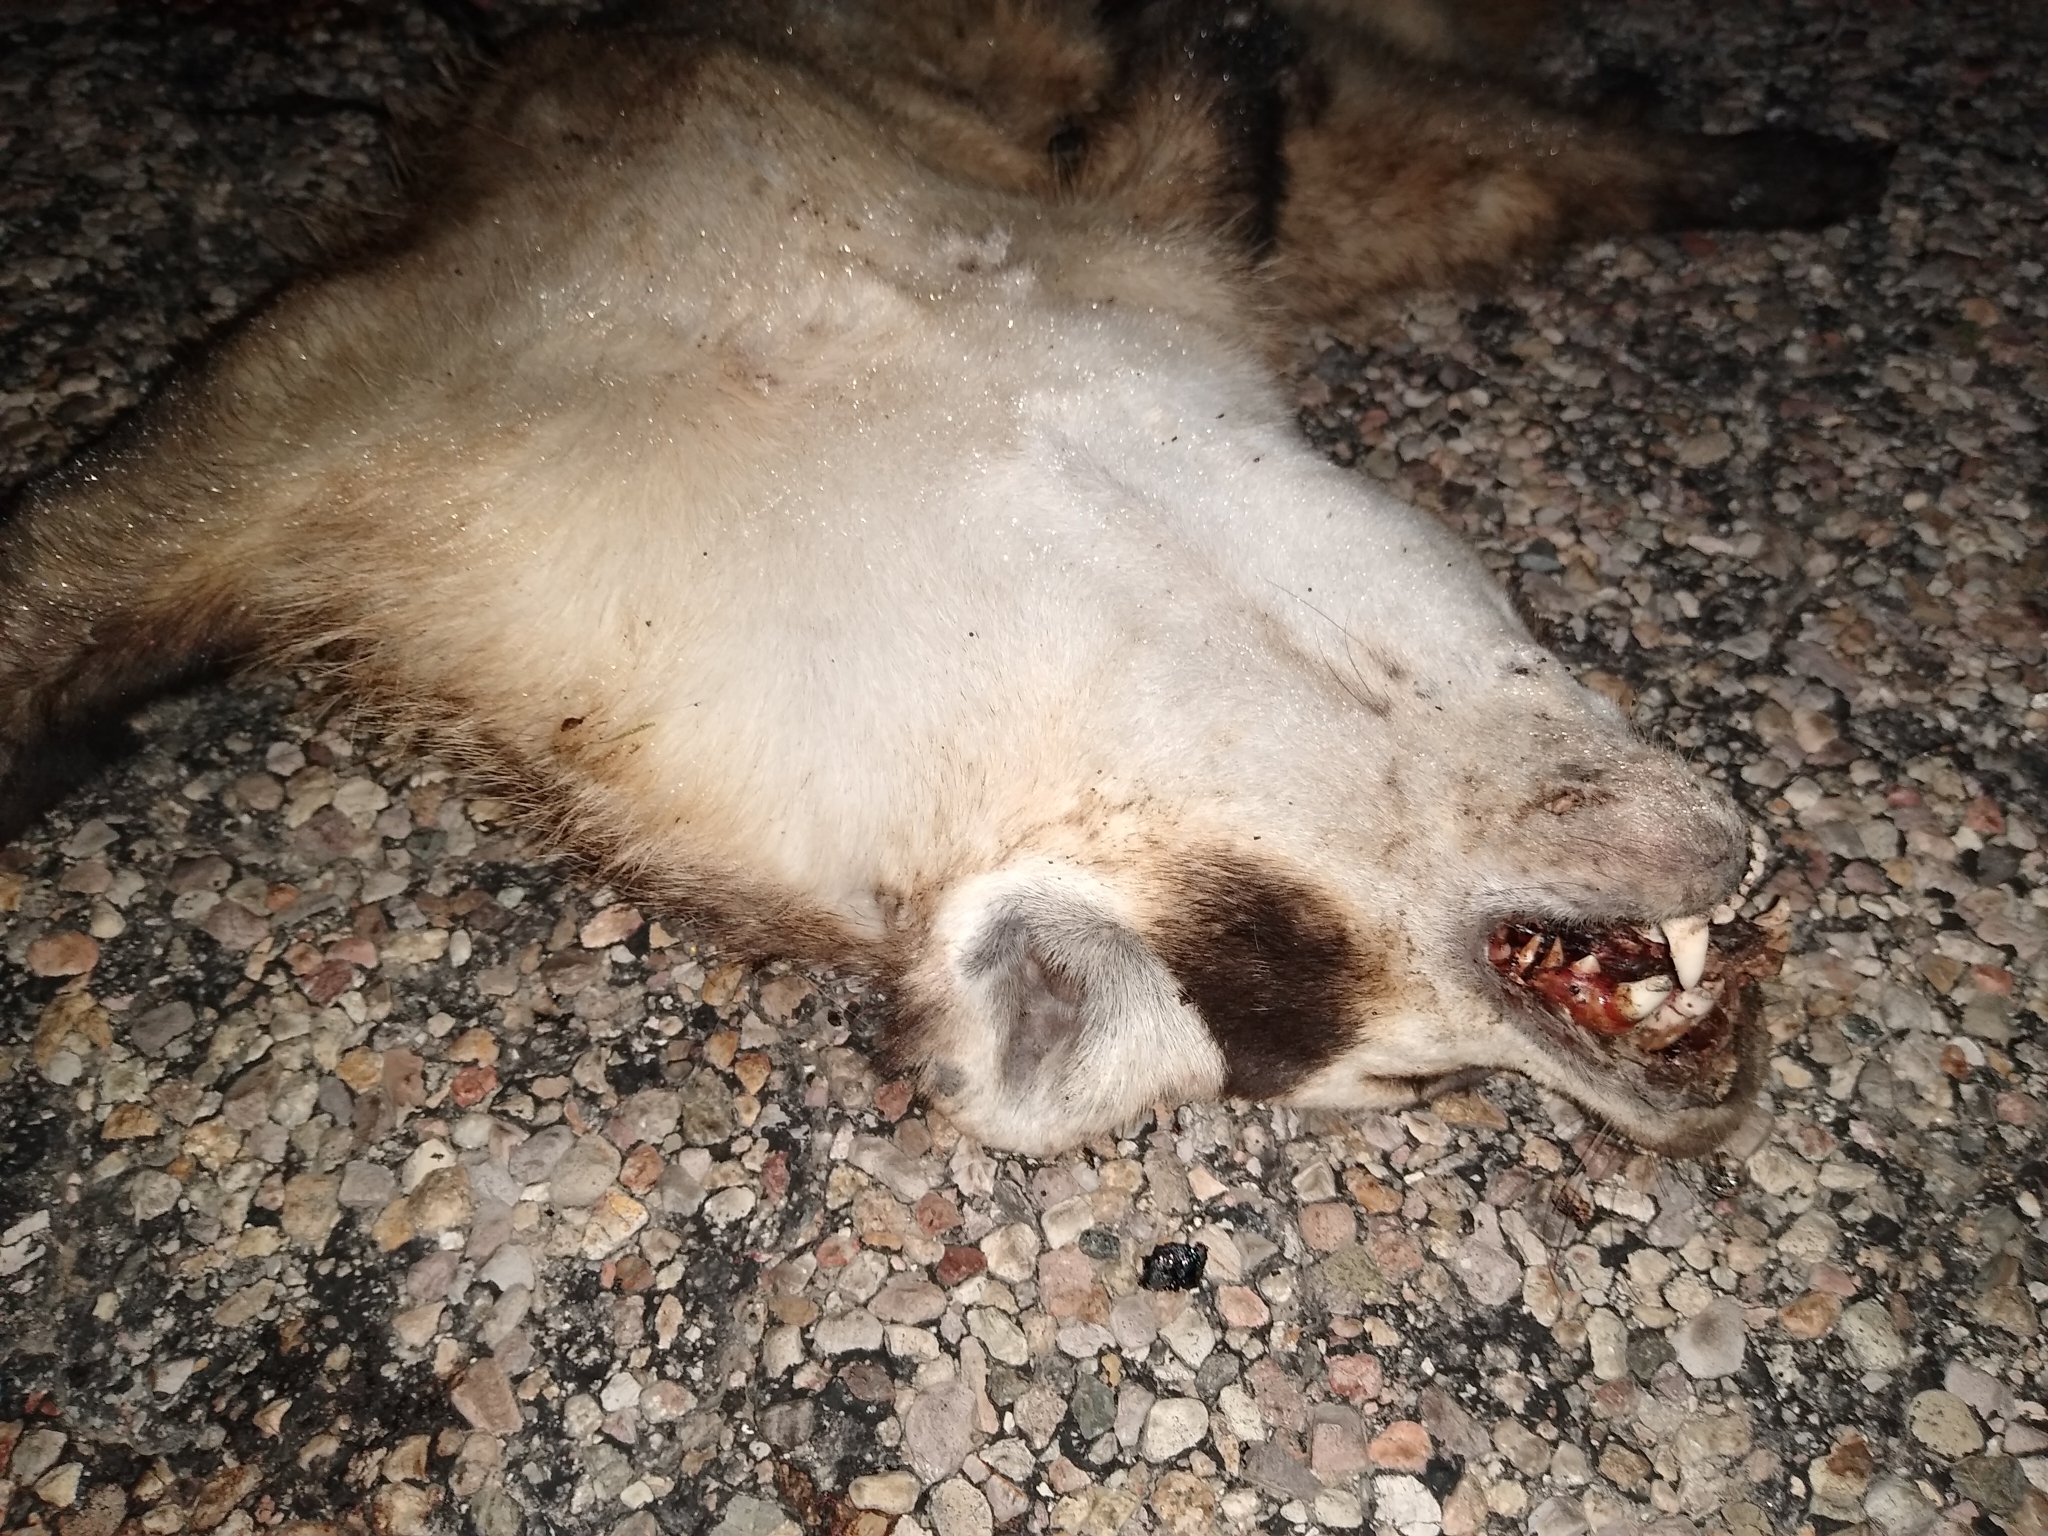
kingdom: Animalia
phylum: Chordata
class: Mammalia
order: Carnivora
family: Mustelidae
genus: Taxidea
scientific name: Taxidea taxus
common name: American badger
